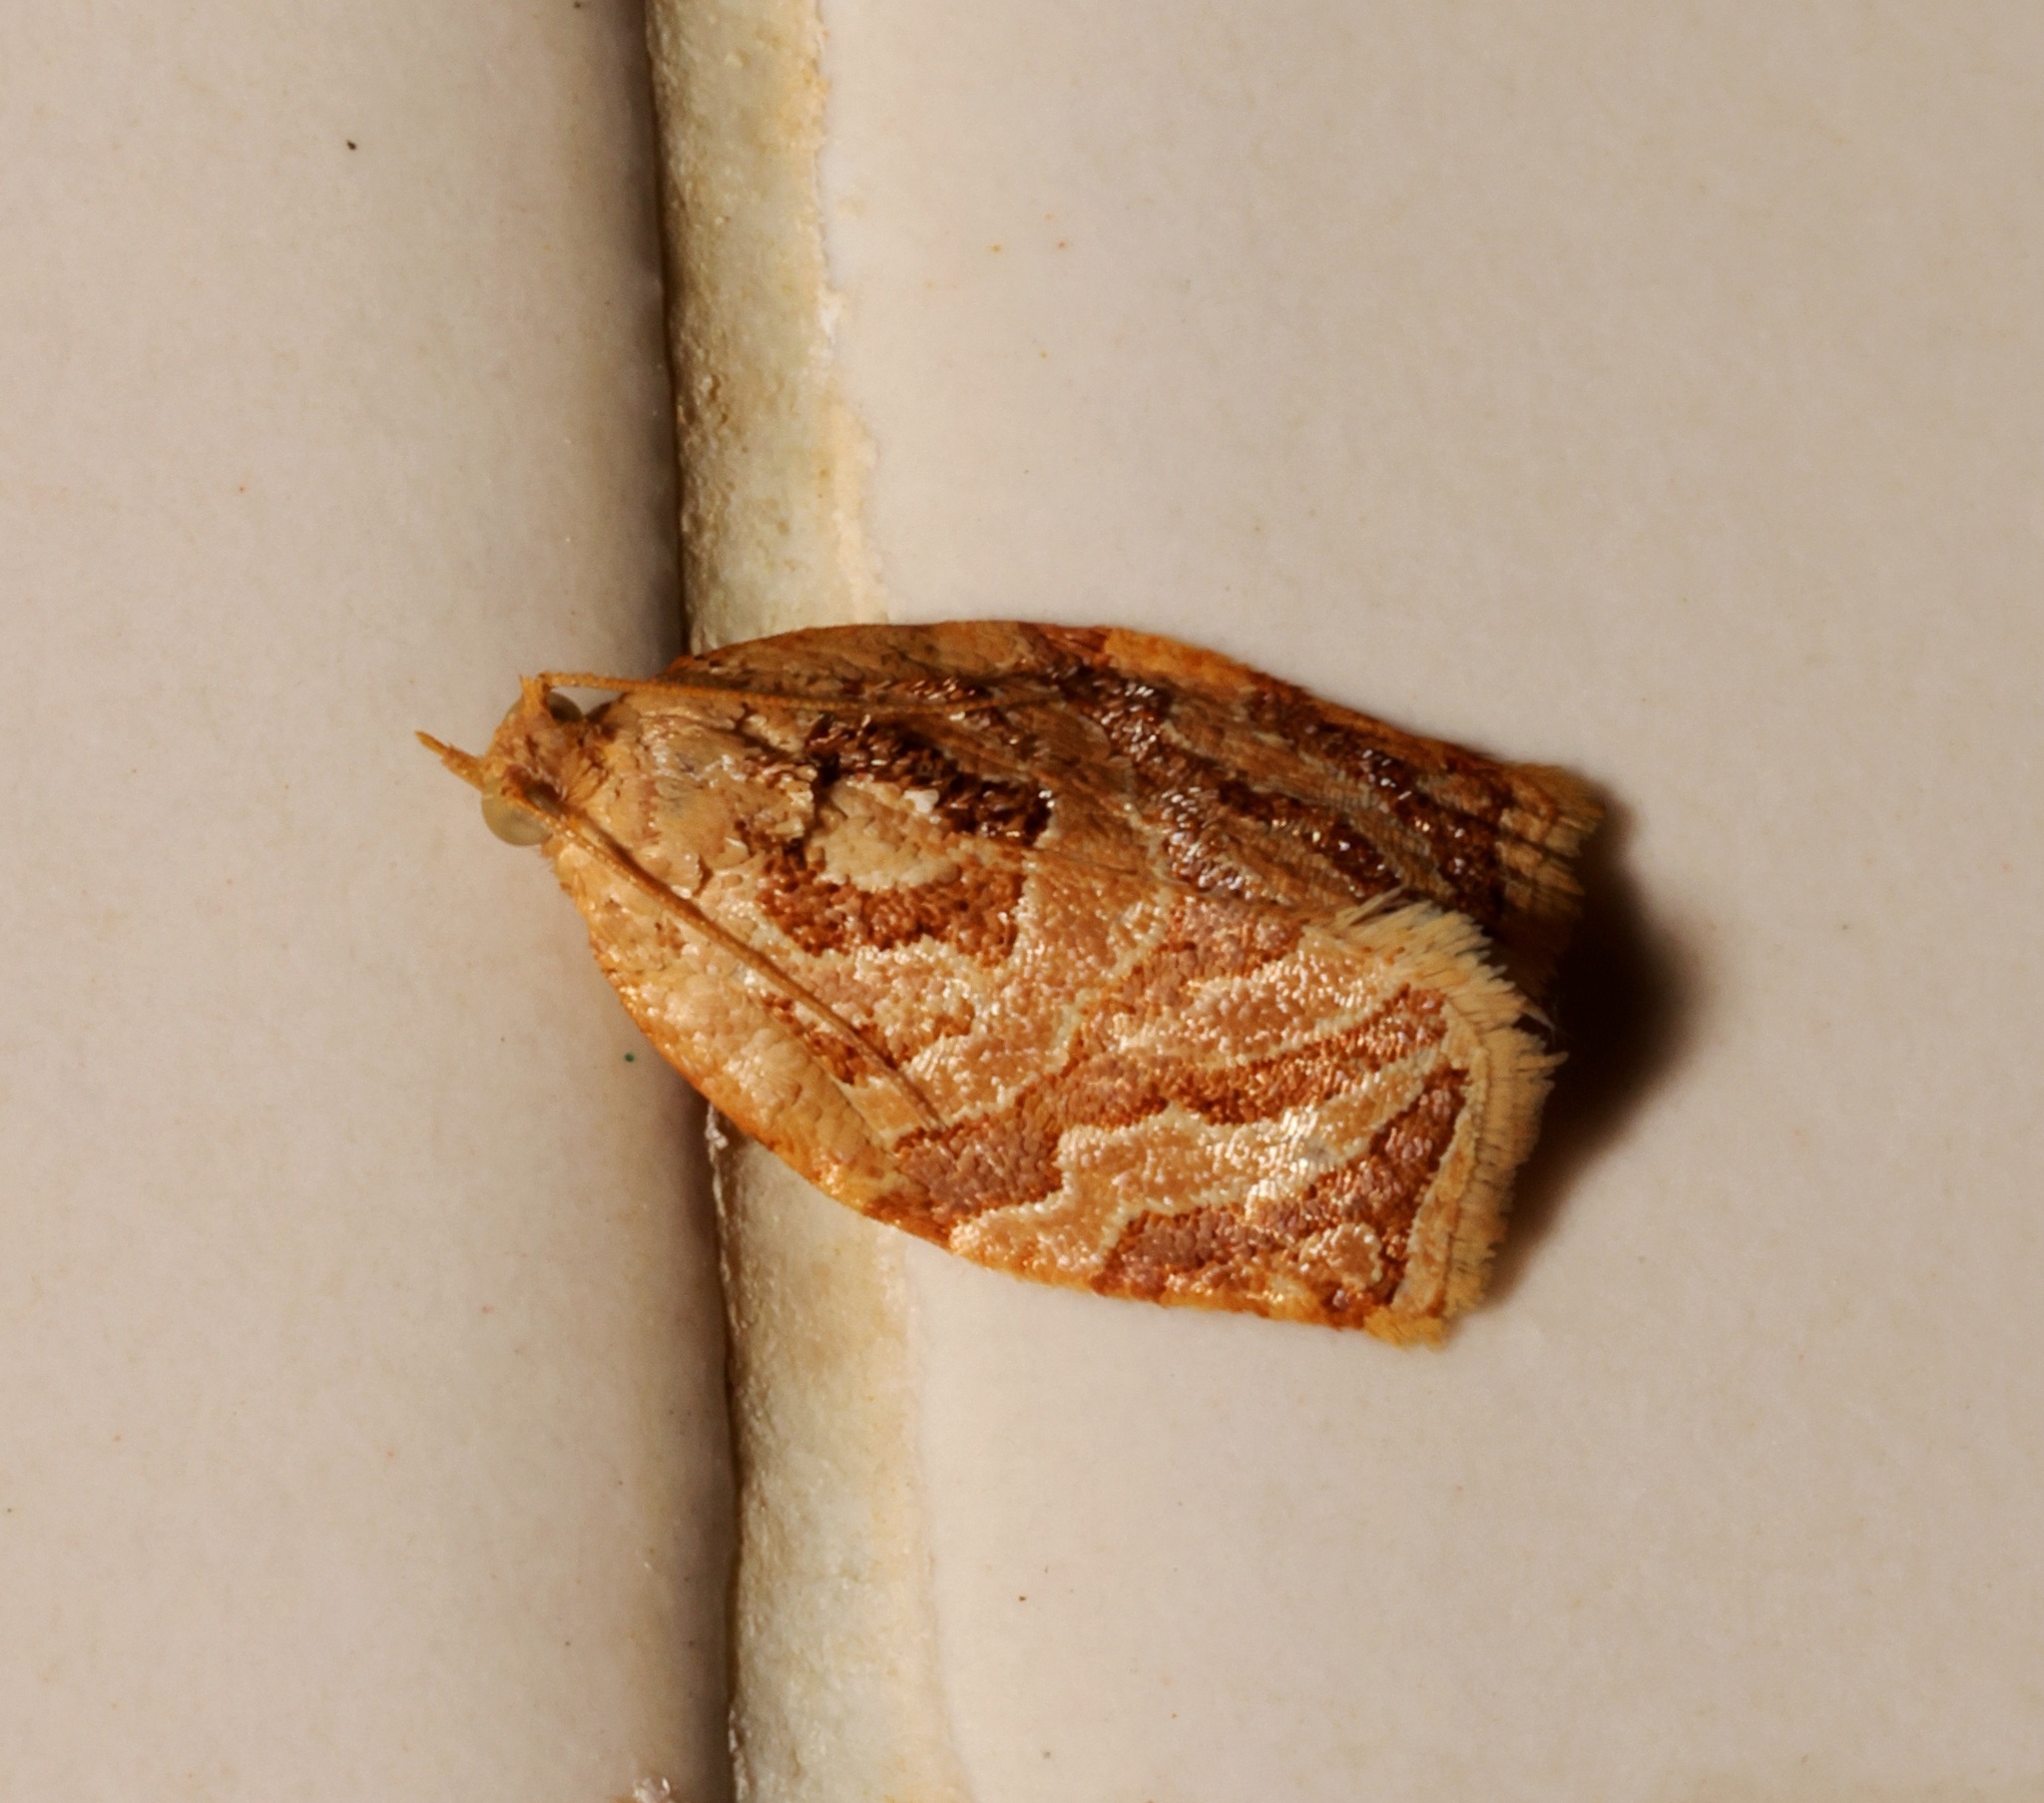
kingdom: Animalia
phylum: Arthropoda
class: Insecta
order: Lepidoptera
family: Tortricidae
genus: Adoxophyes
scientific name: Adoxophyes privatana
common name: Asian orchid tortrix
